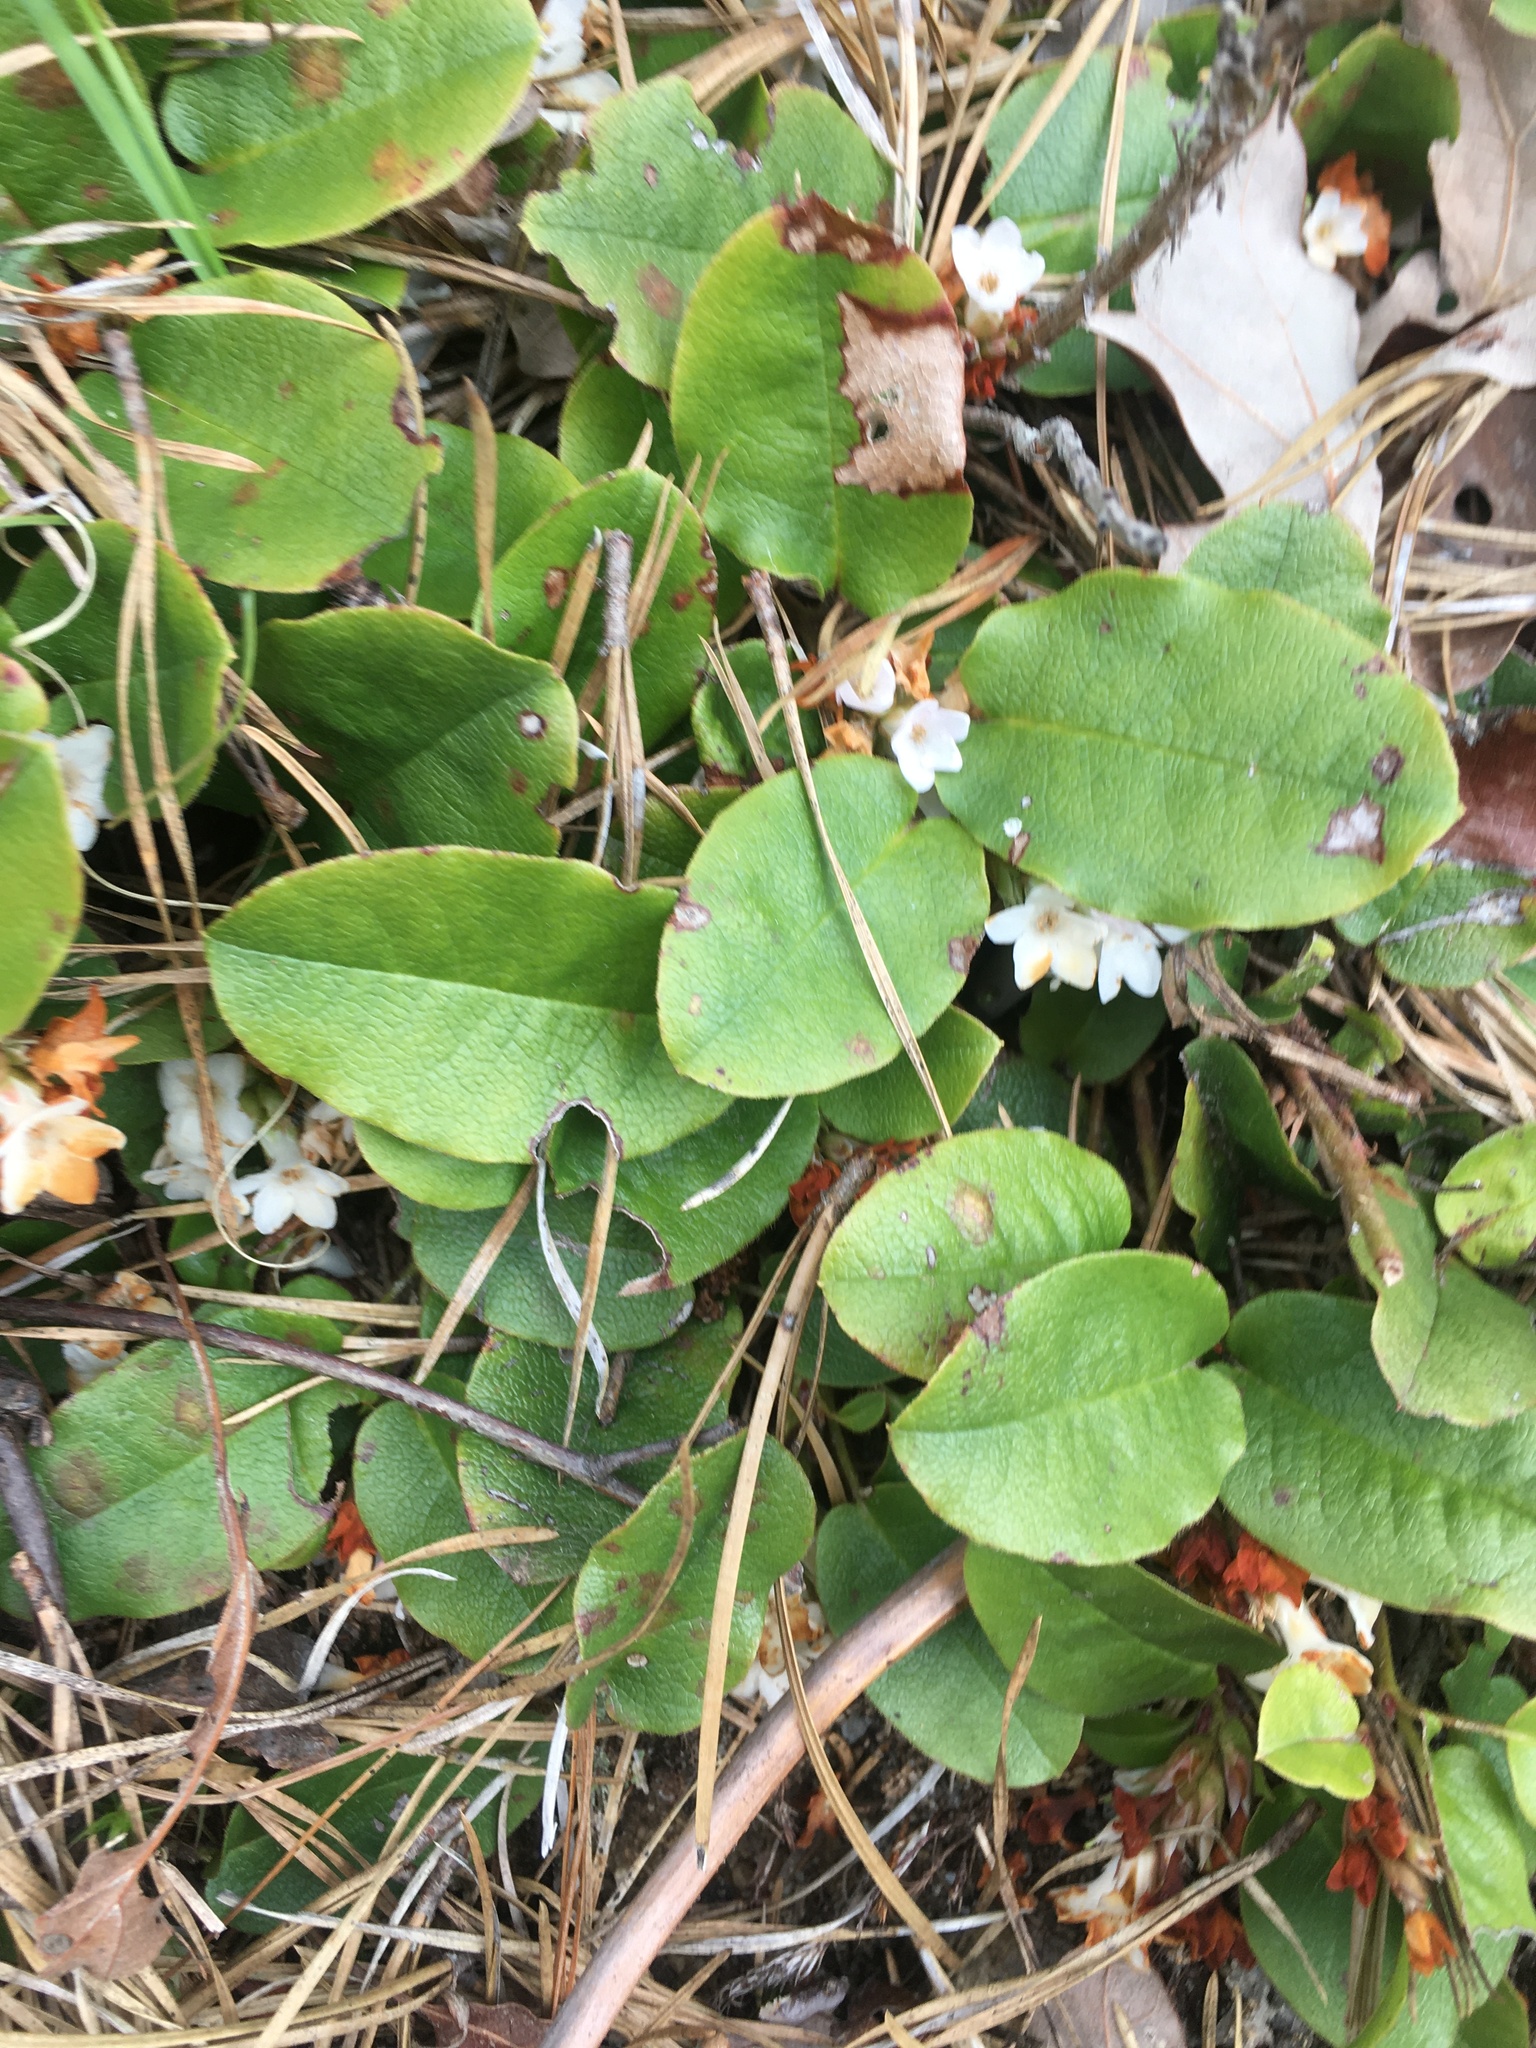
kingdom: Plantae
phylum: Tracheophyta
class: Magnoliopsida
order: Ericales
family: Ericaceae
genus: Epigaea
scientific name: Epigaea repens
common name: Gravelroot
